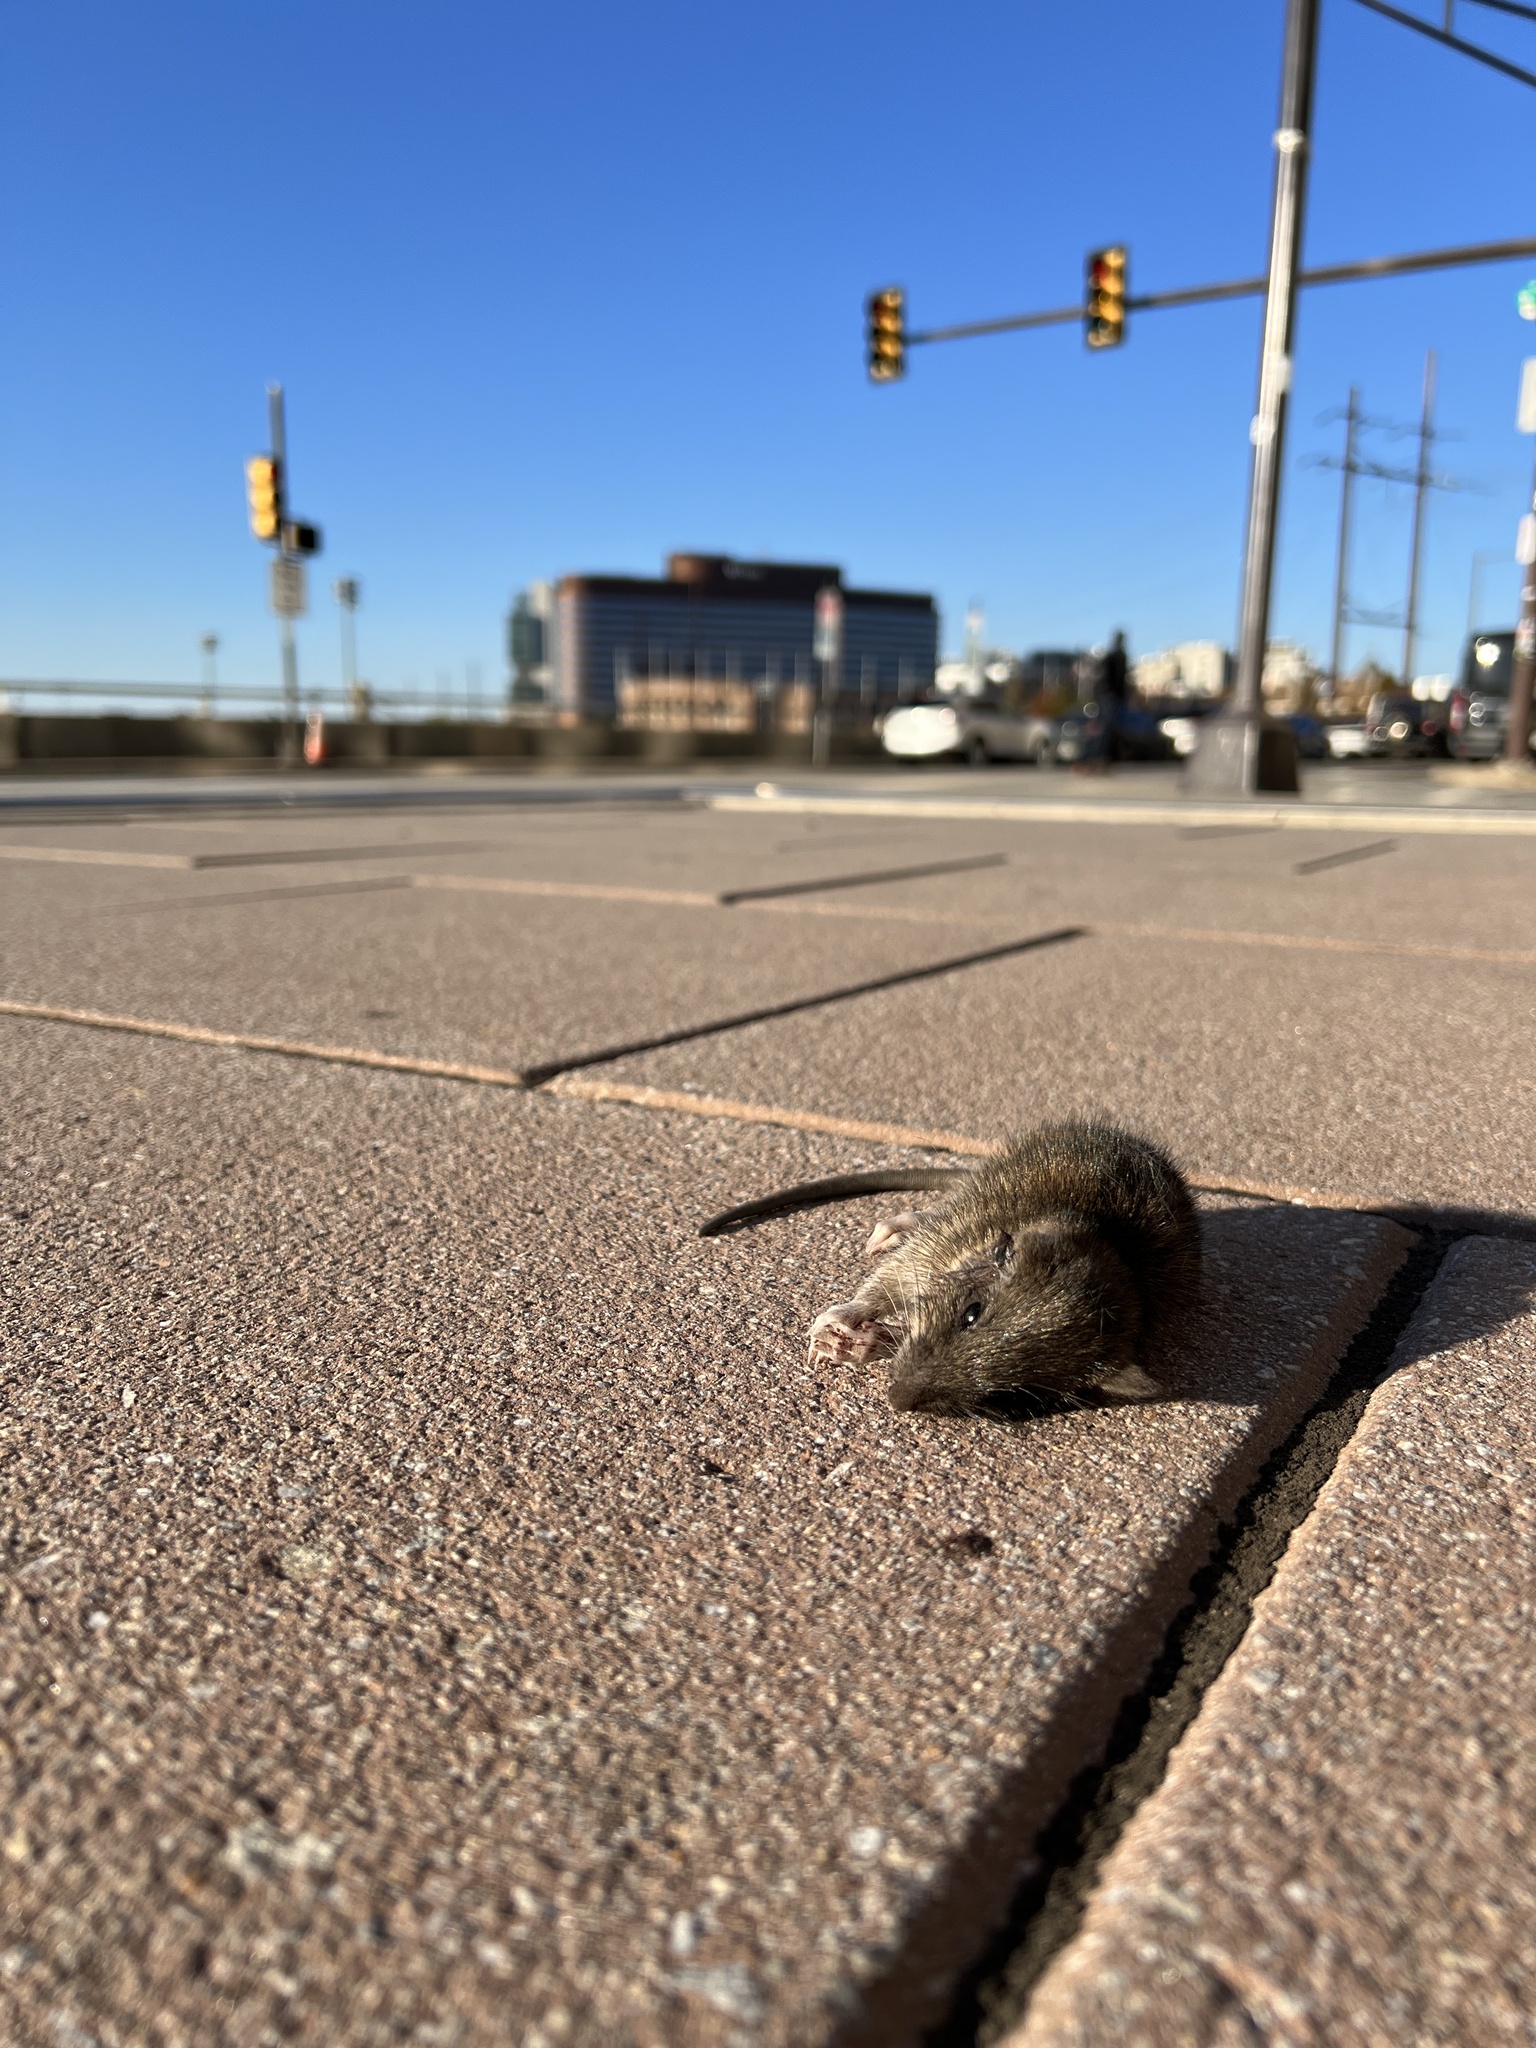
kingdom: Animalia
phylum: Chordata
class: Mammalia
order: Rodentia
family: Muridae
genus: Rattus
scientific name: Rattus norvegicus
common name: Brown rat
